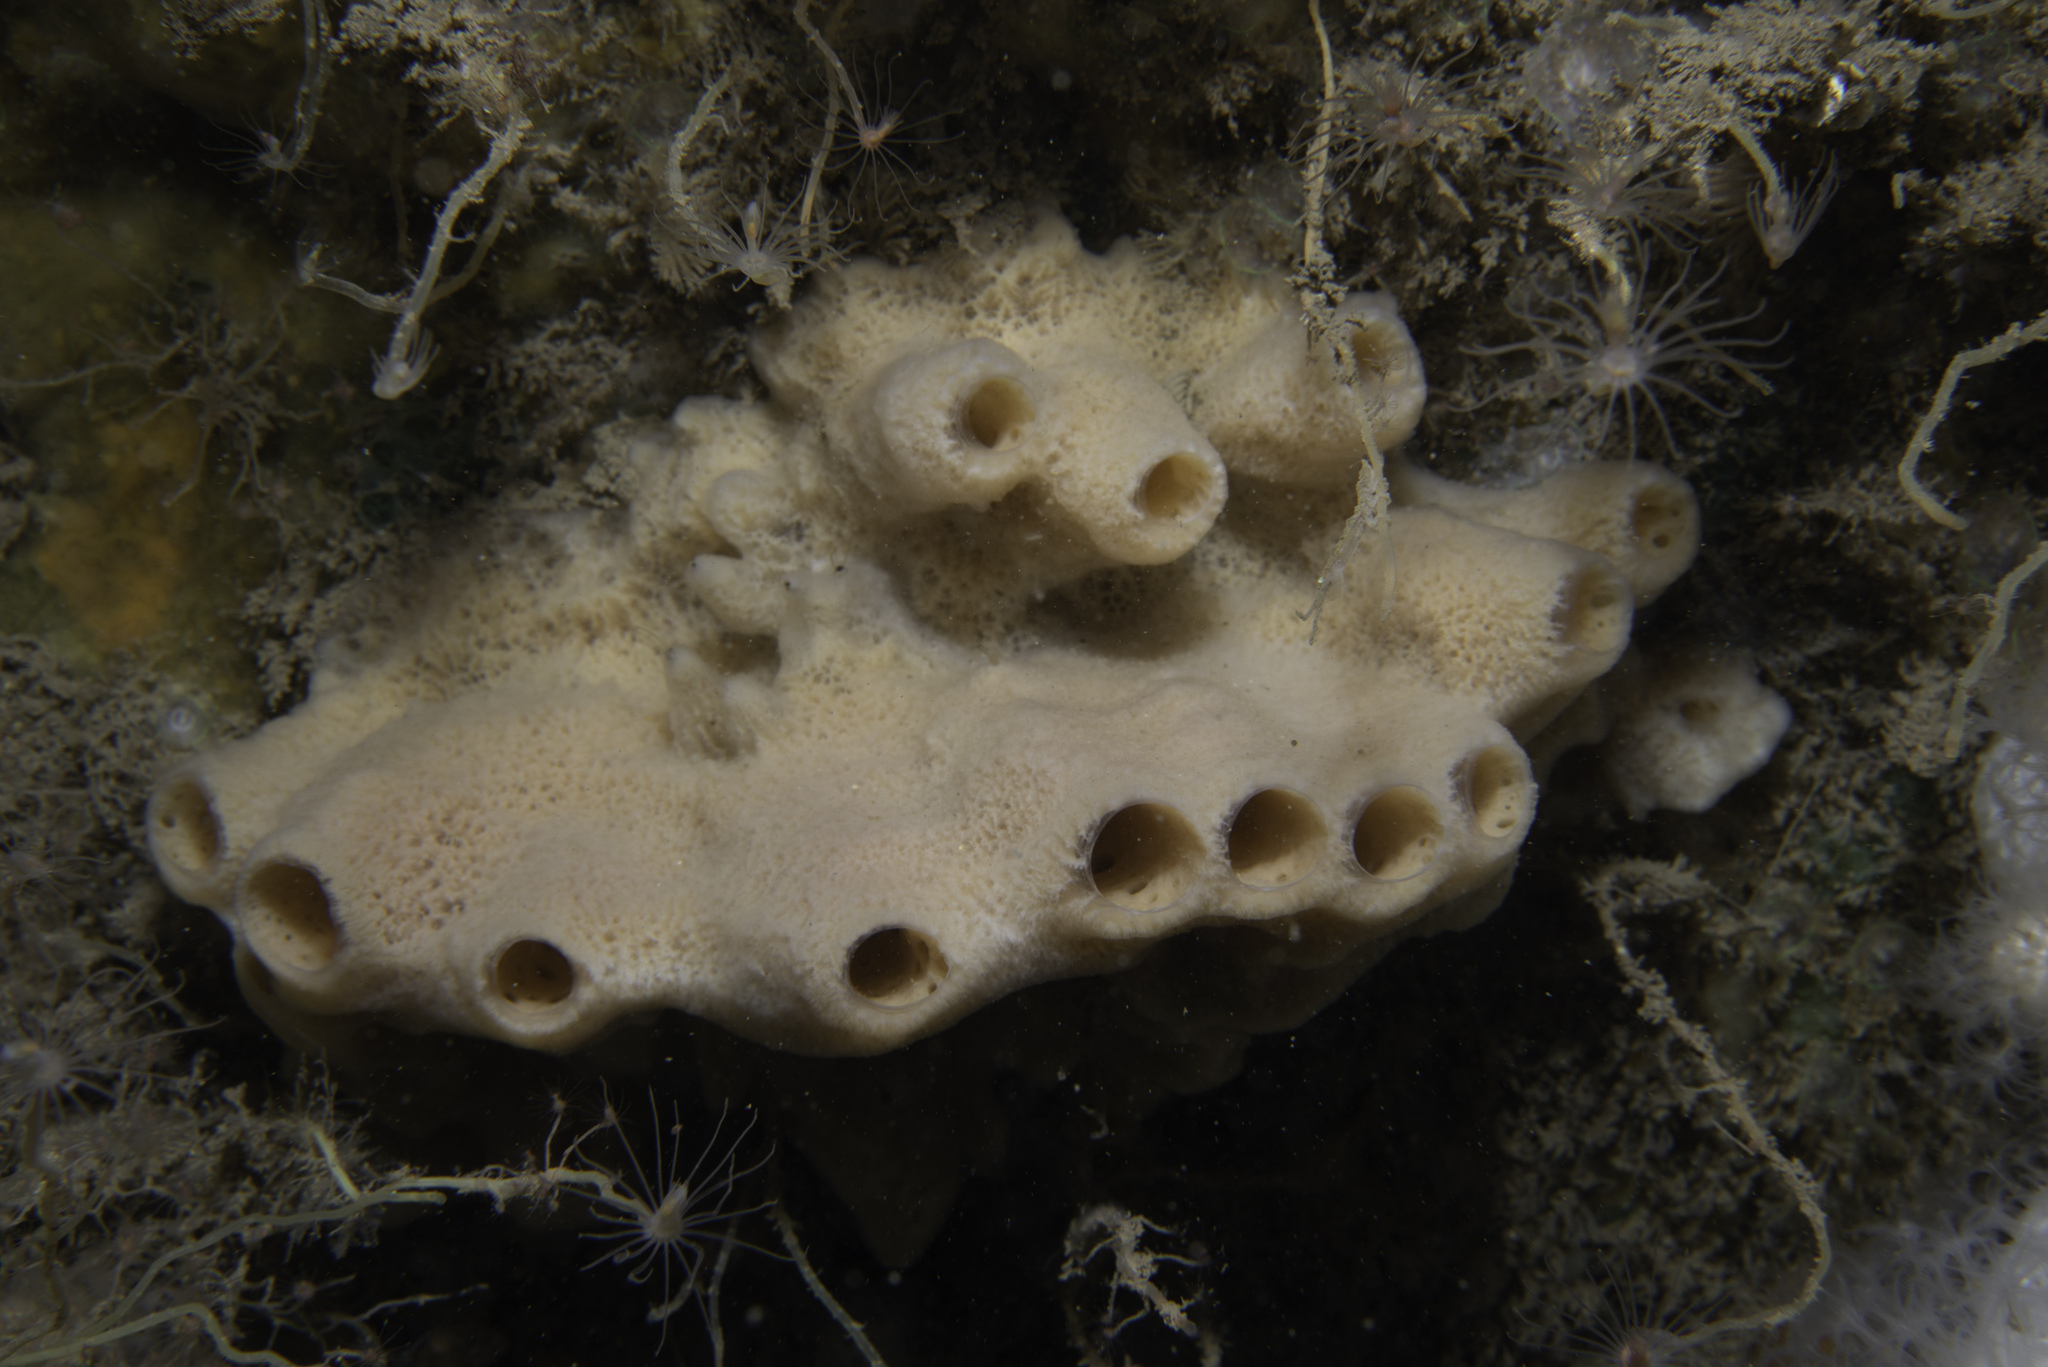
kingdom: Animalia
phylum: Porifera
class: Demospongiae
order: Haplosclerida
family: Chalinidae
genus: Haliclona
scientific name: Haliclona viscosa
